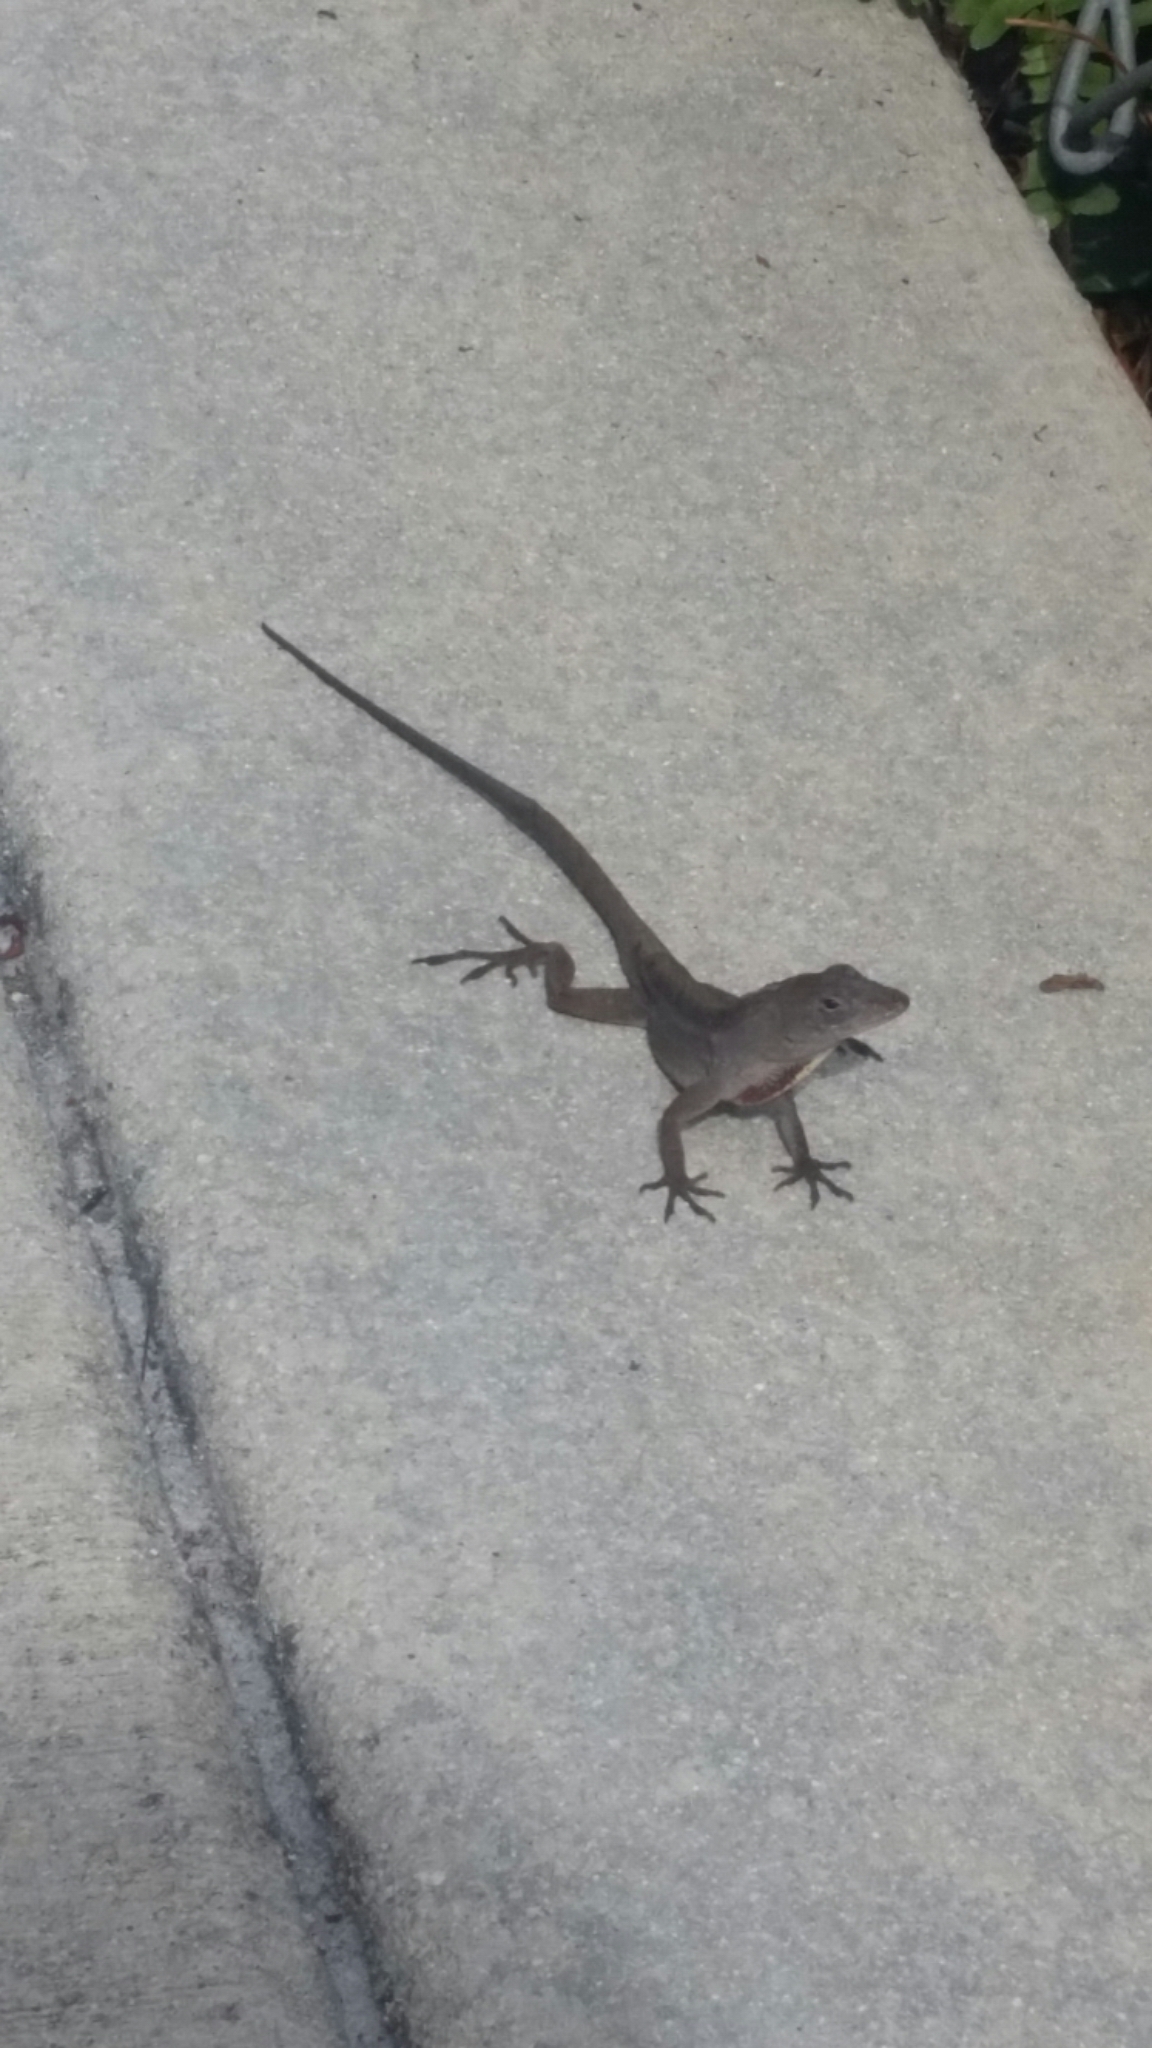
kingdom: Animalia
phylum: Chordata
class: Squamata
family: Dactyloidae
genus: Anolis
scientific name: Anolis sagrei
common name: Brown anole
